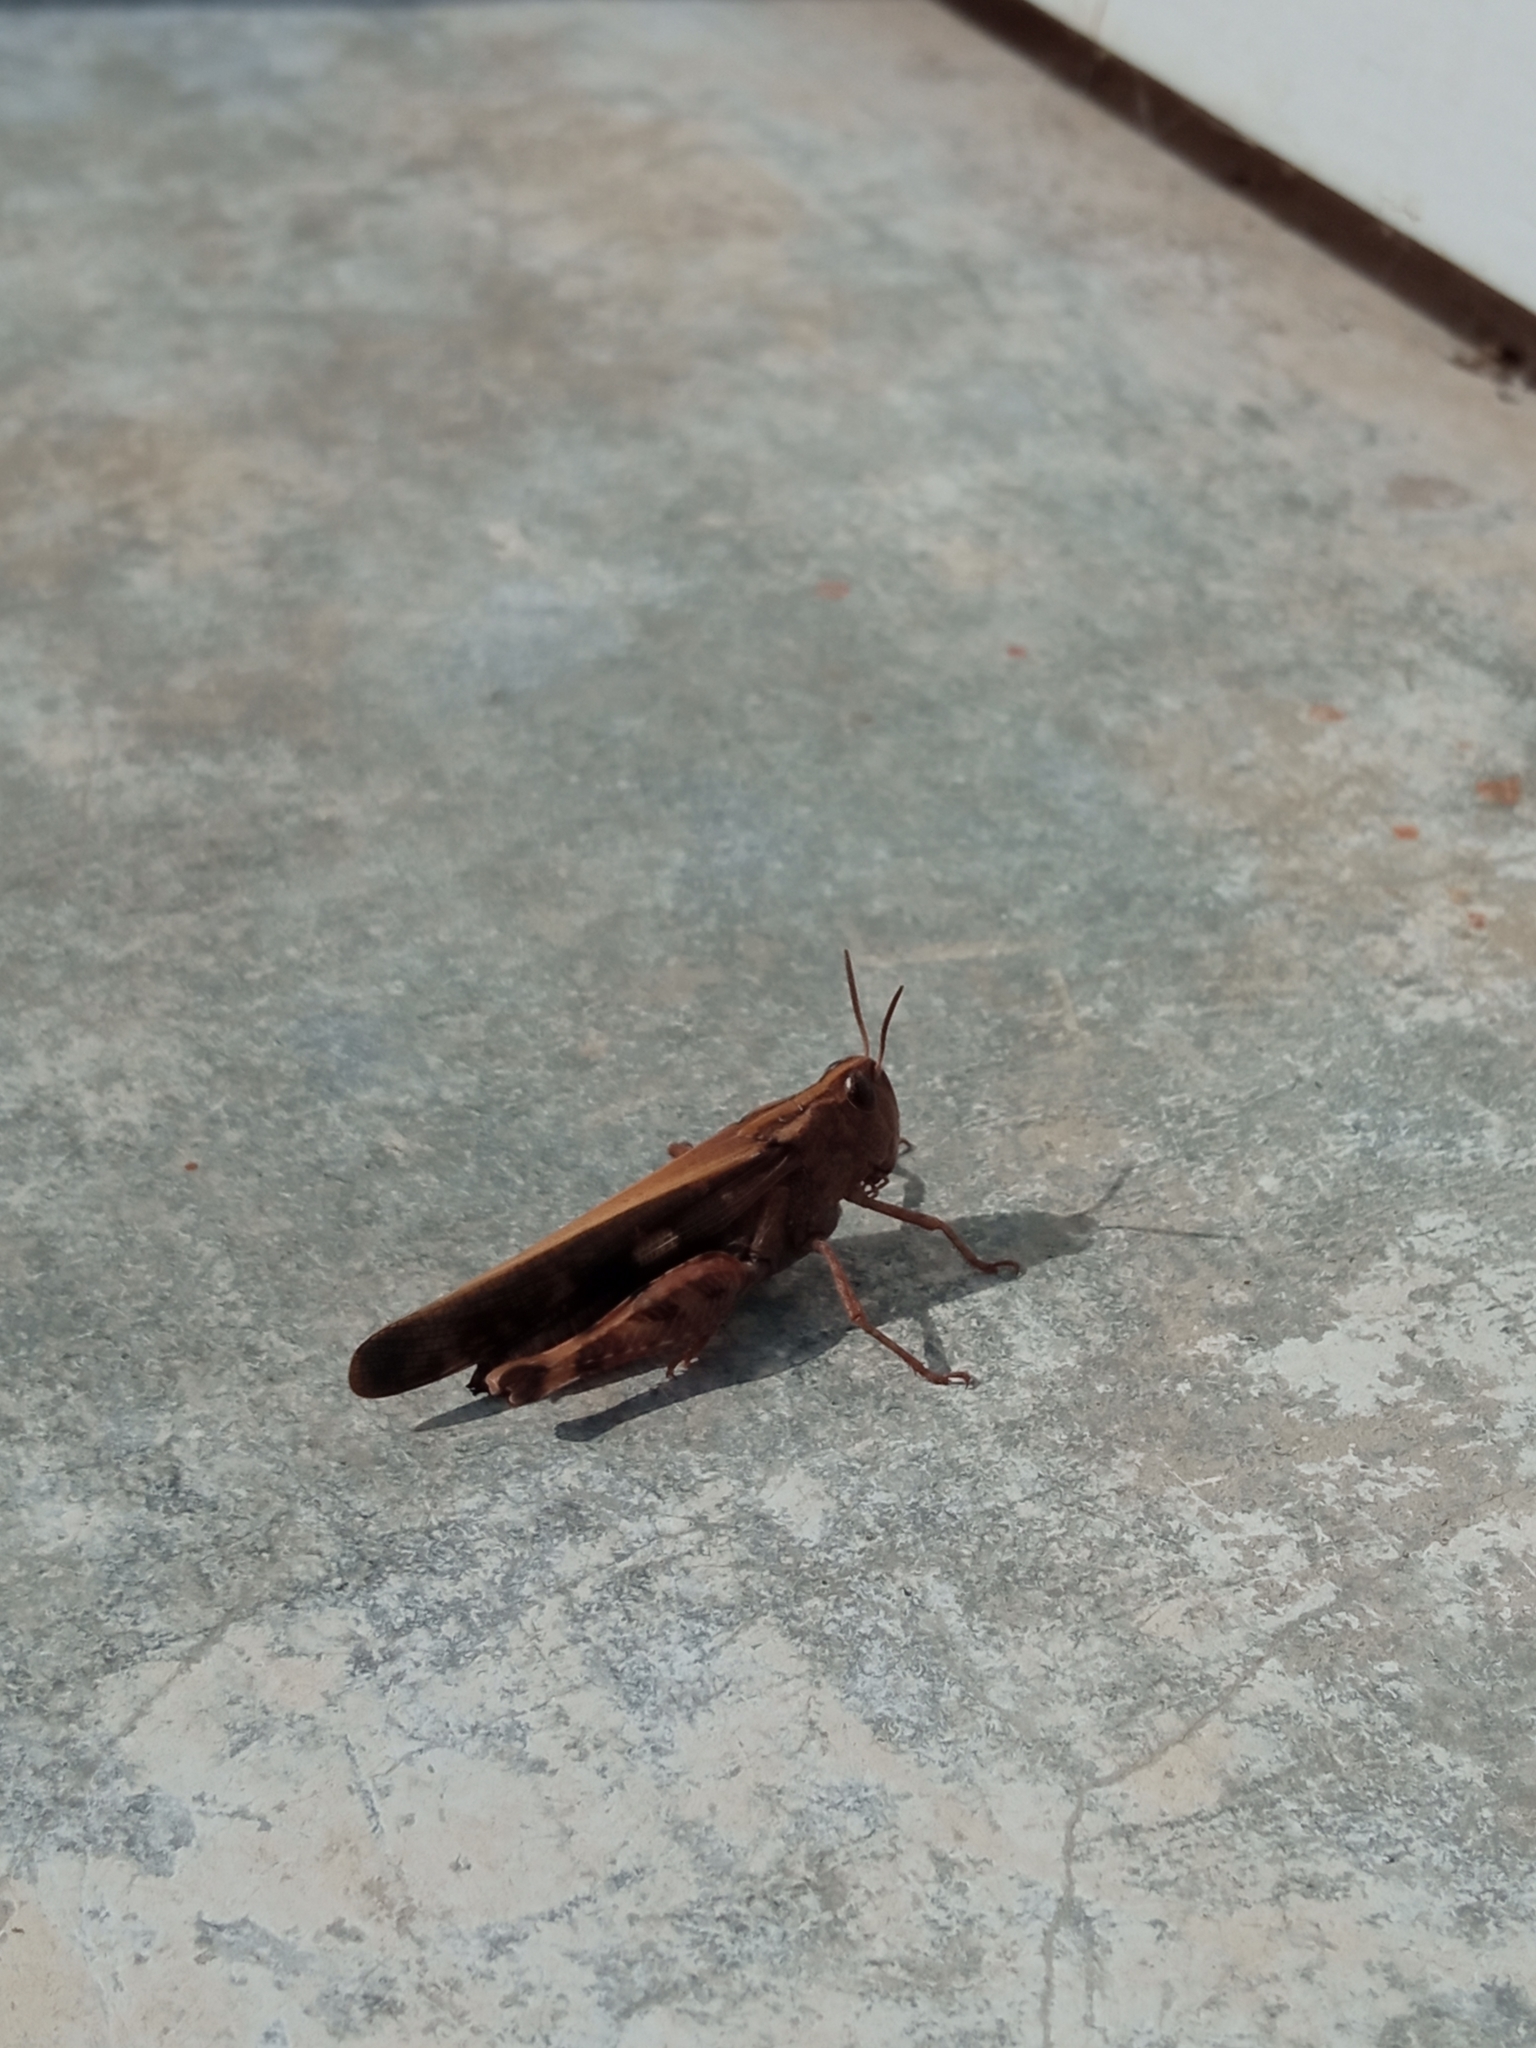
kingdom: Animalia
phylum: Arthropoda
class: Insecta
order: Orthoptera
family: Acrididae
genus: Aiolopus
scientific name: Aiolopus strepens
